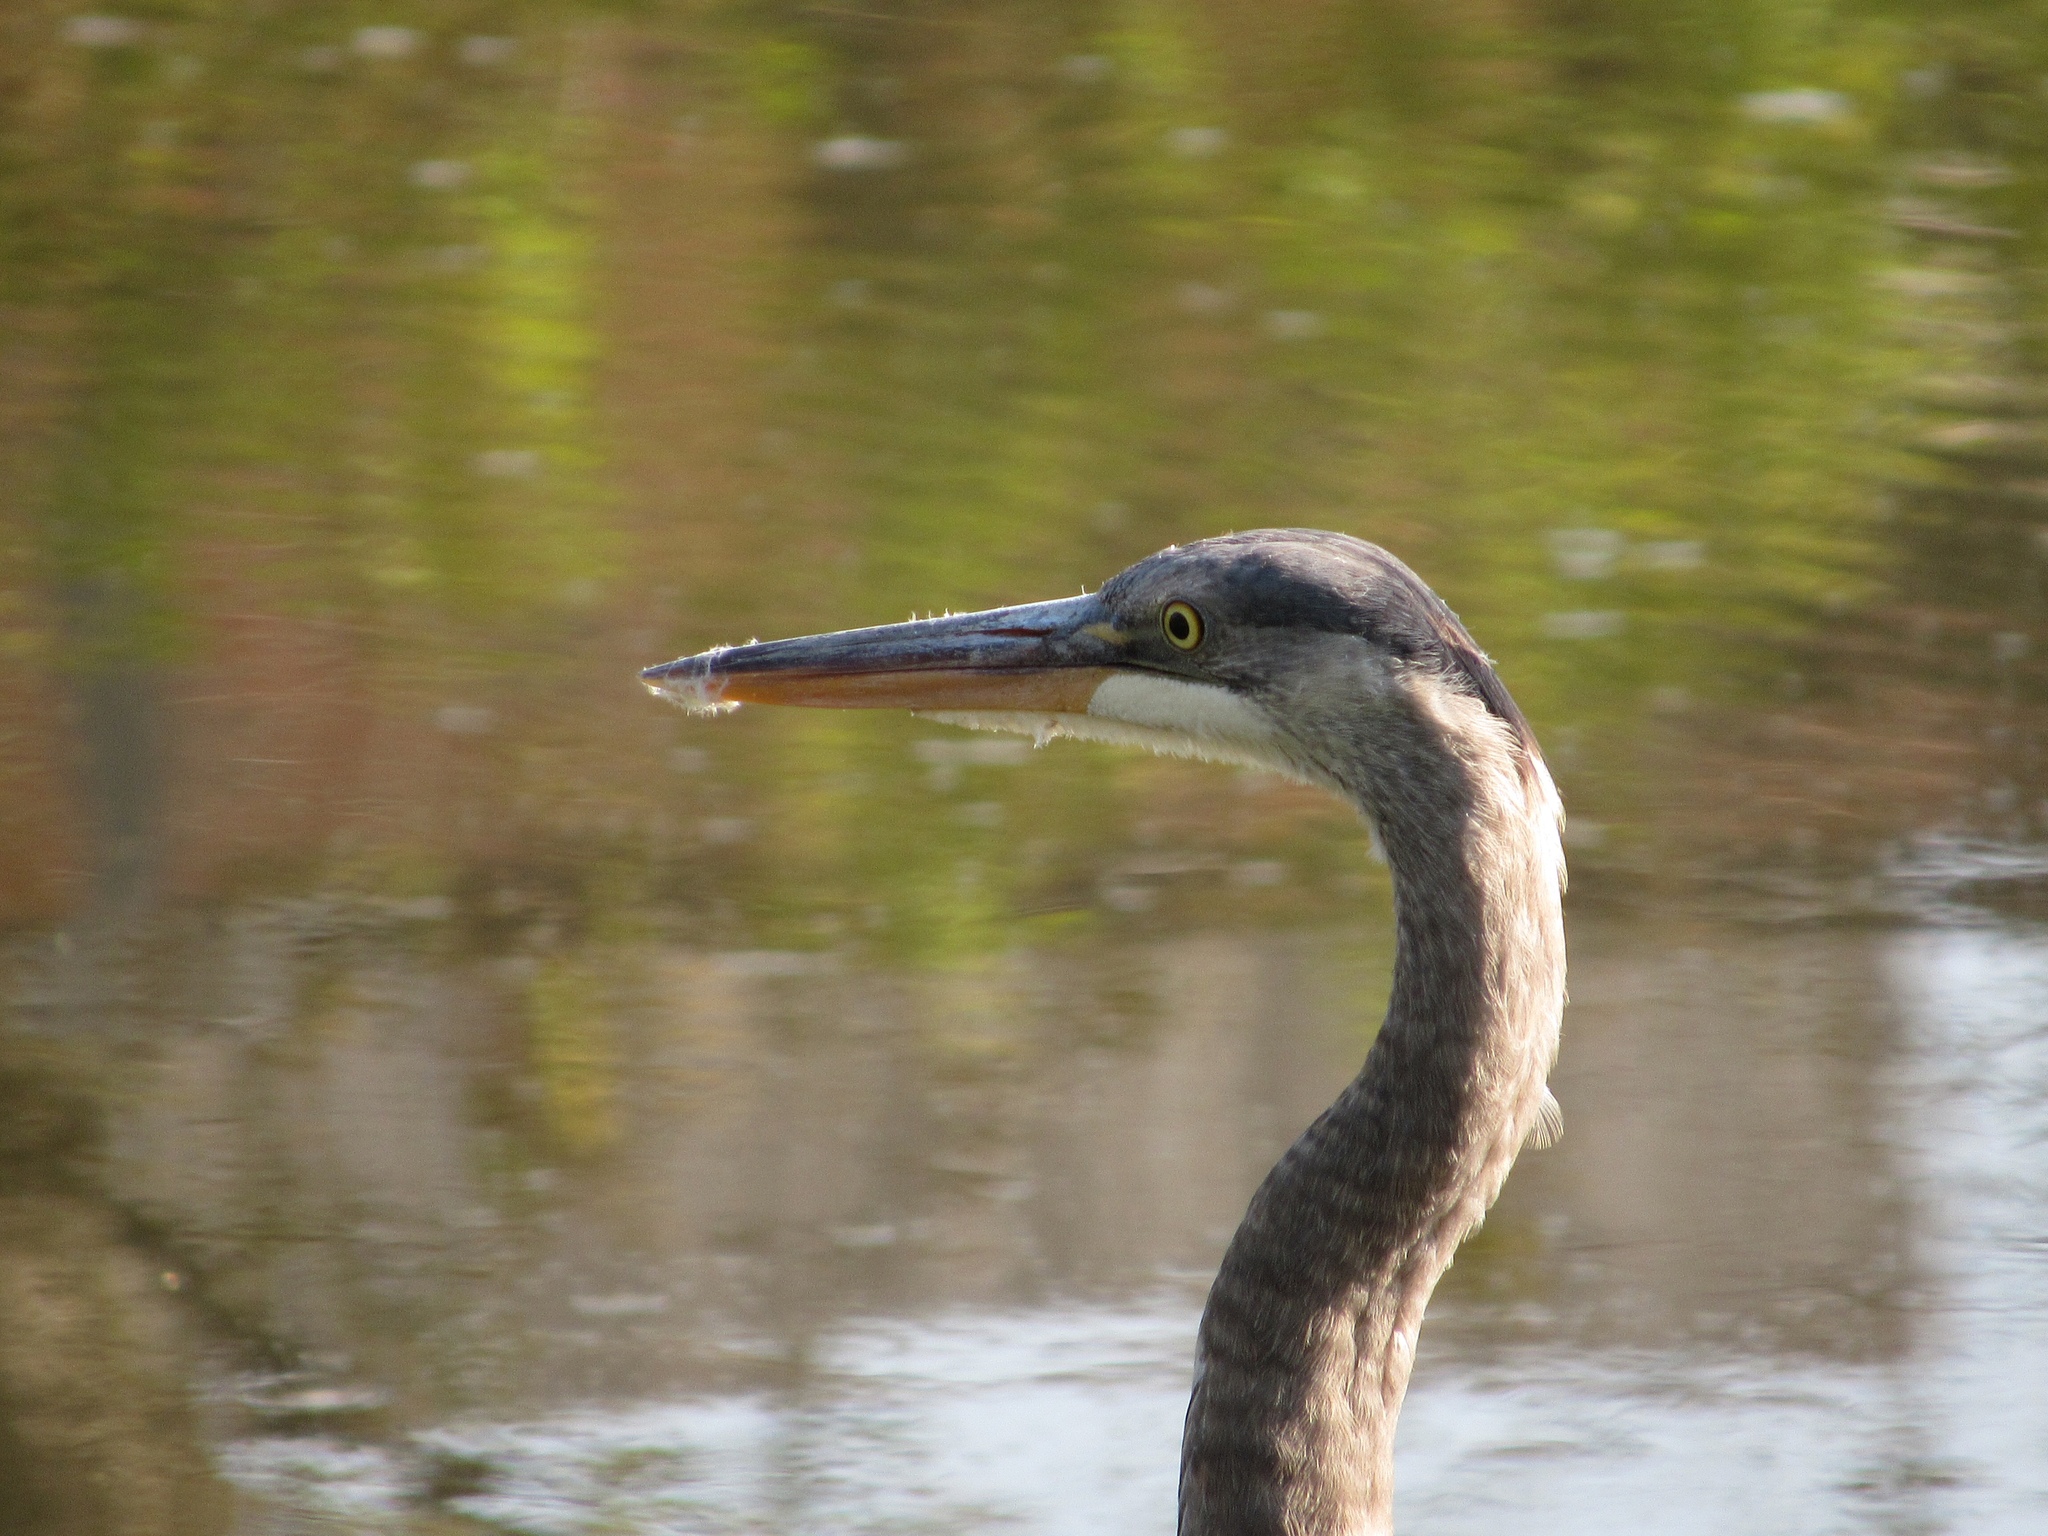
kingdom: Animalia
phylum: Chordata
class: Aves
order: Pelecaniformes
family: Ardeidae
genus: Ardea
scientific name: Ardea herodias
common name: Great blue heron
